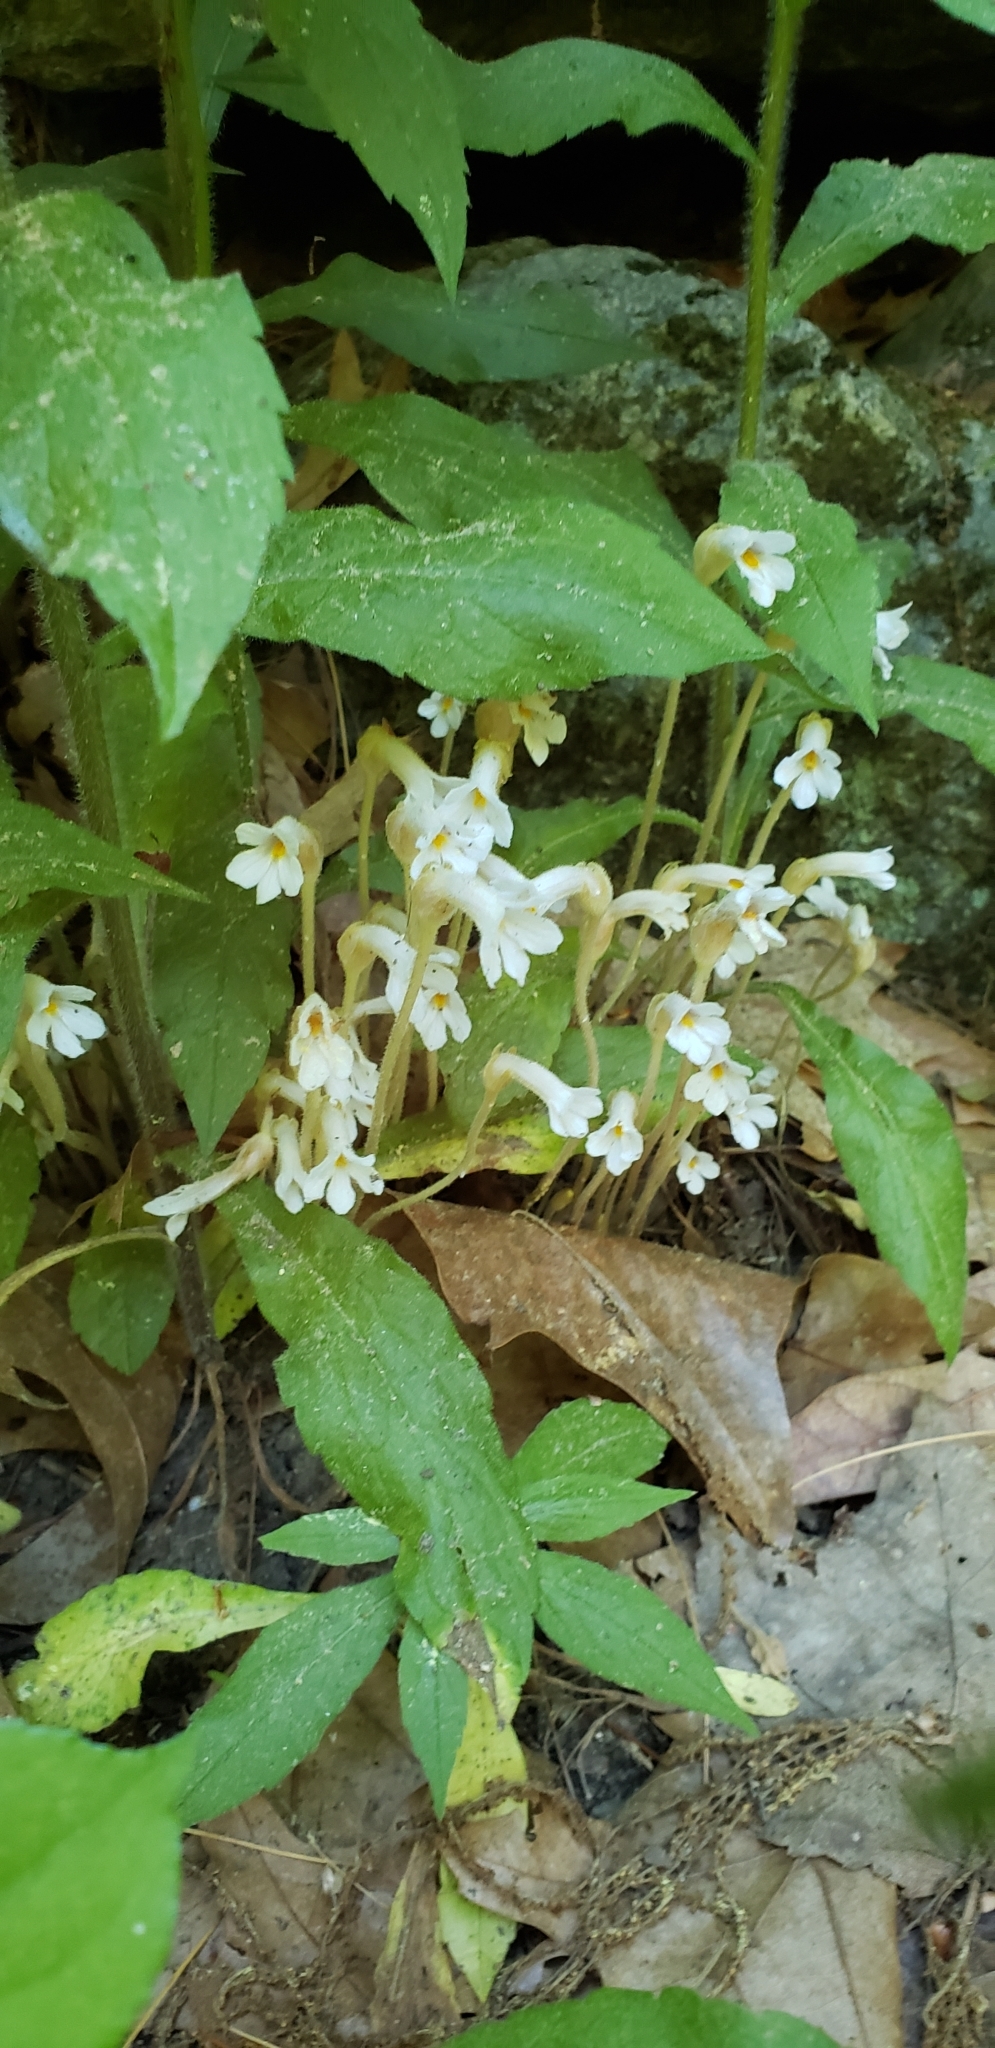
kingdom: Plantae
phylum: Tracheophyta
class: Magnoliopsida
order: Lamiales
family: Orobanchaceae
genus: Aphyllon
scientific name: Aphyllon uniflorum
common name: One-flowered broomrape
